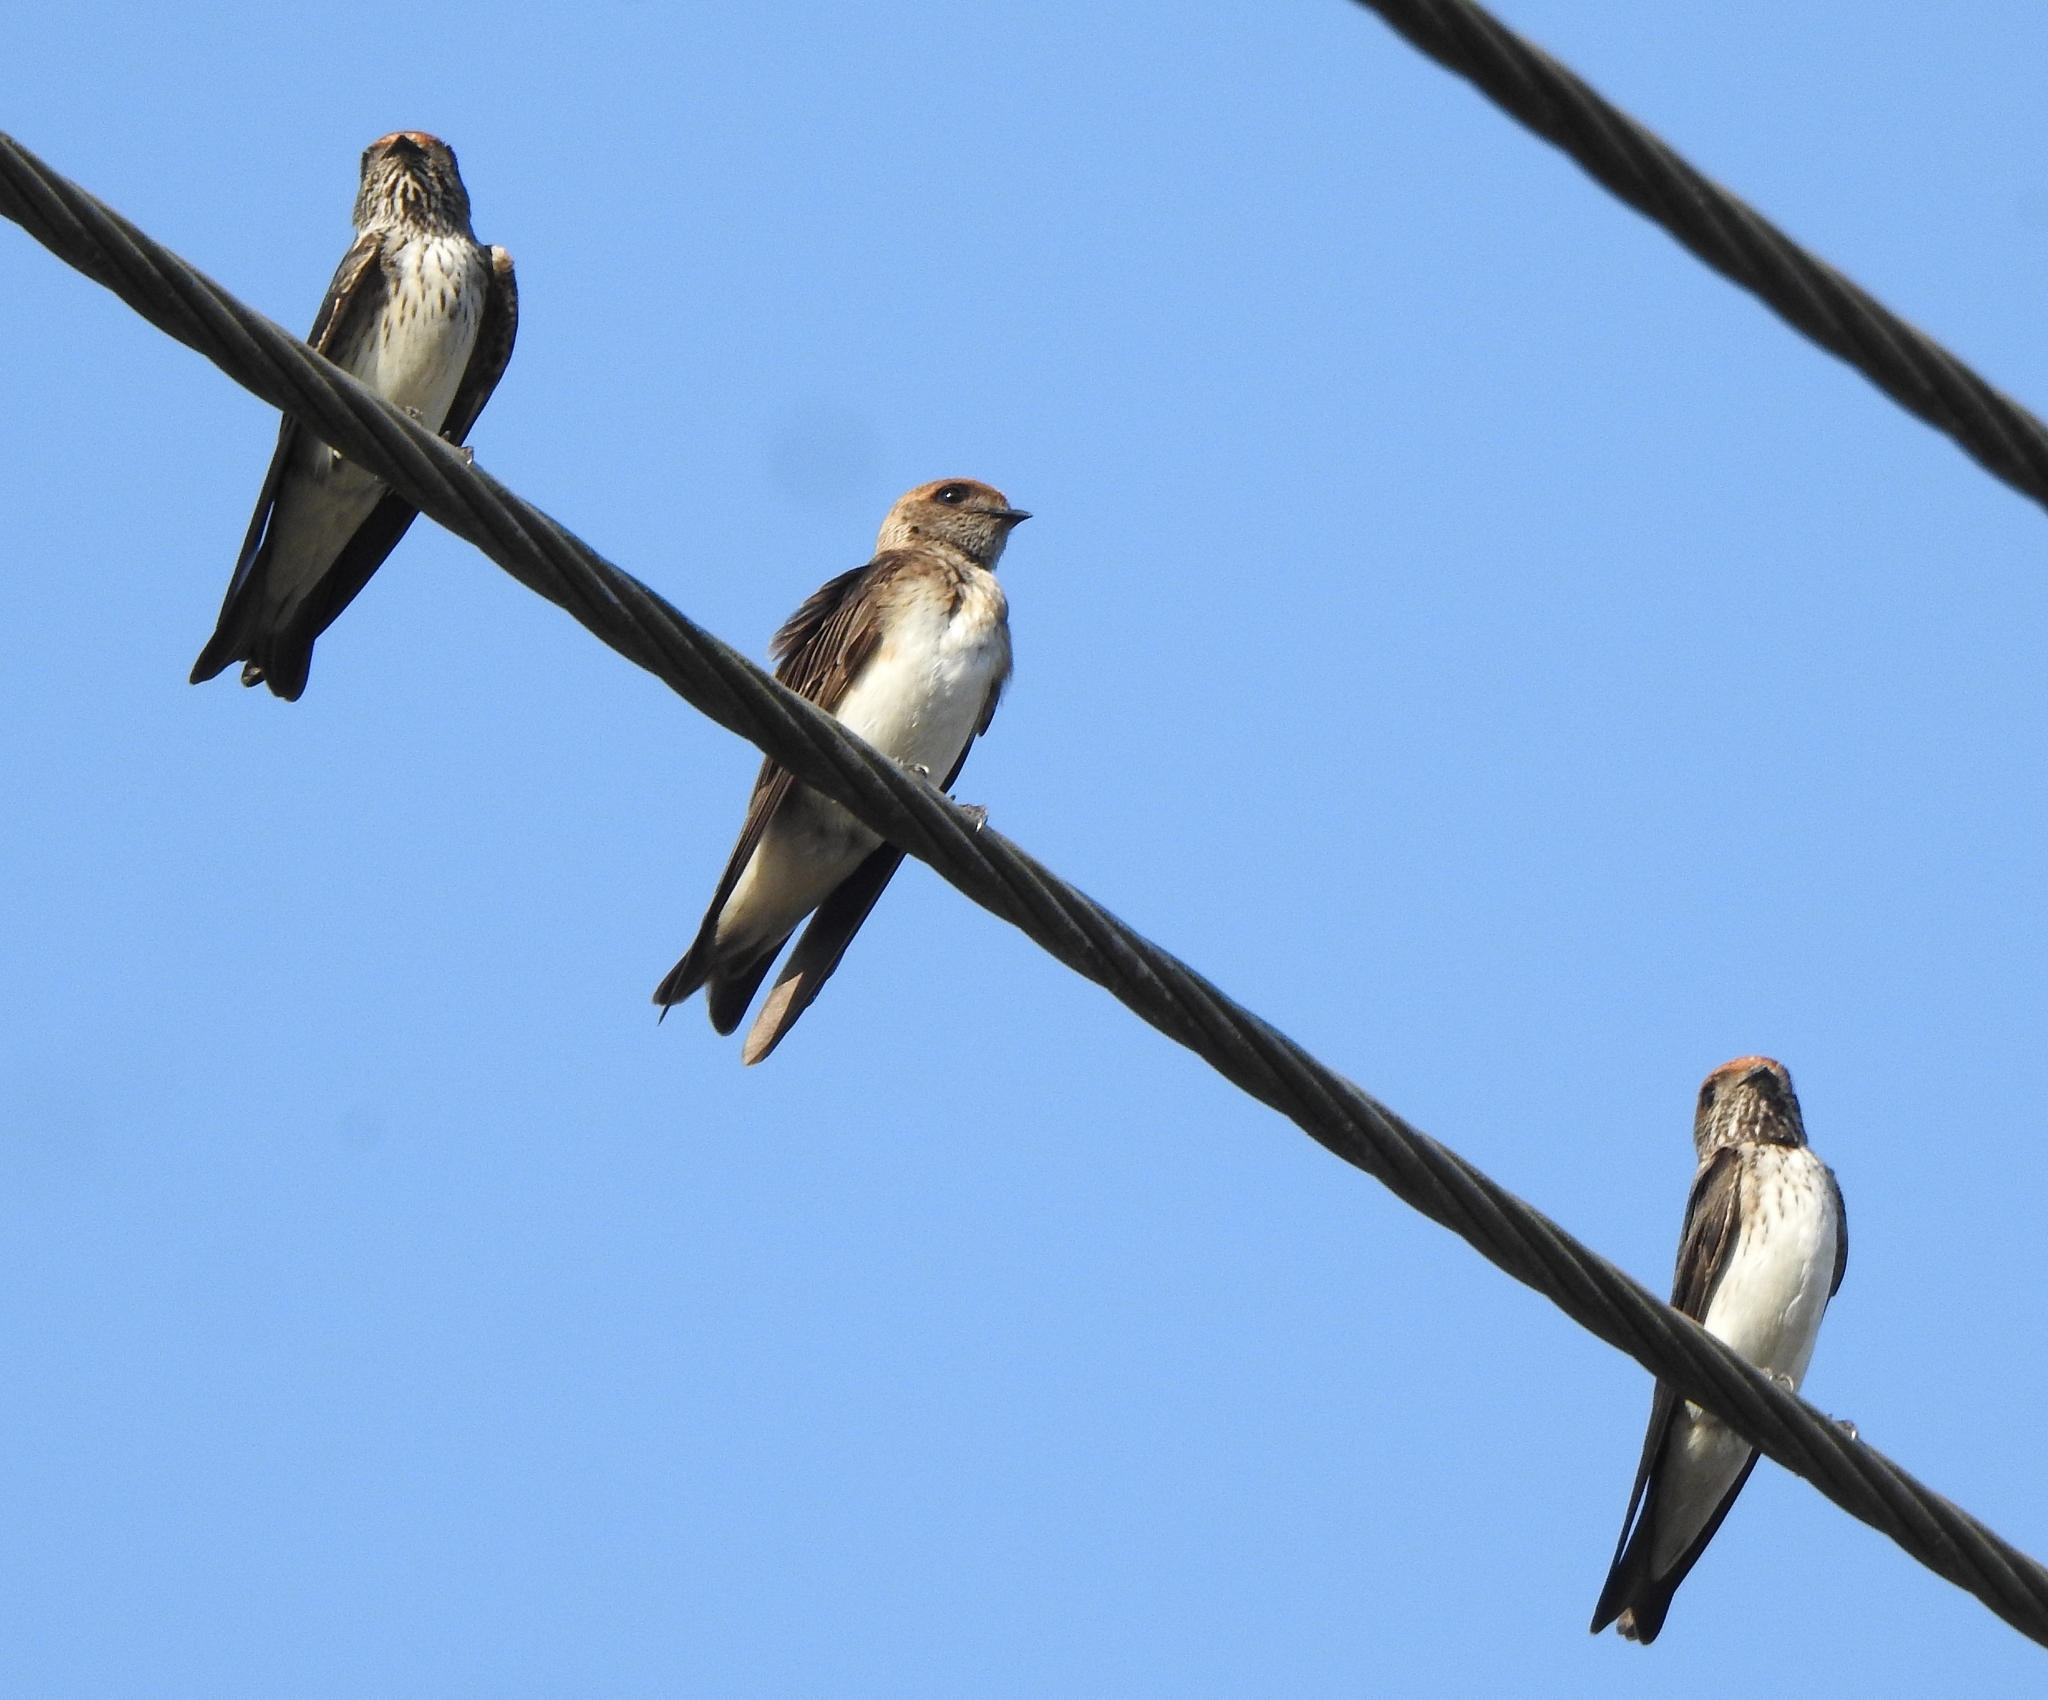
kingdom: Animalia
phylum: Chordata
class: Aves
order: Passeriformes
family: Hirundinidae
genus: Petrochelidon
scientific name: Petrochelidon fluvicola
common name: Streak-throated swallow
